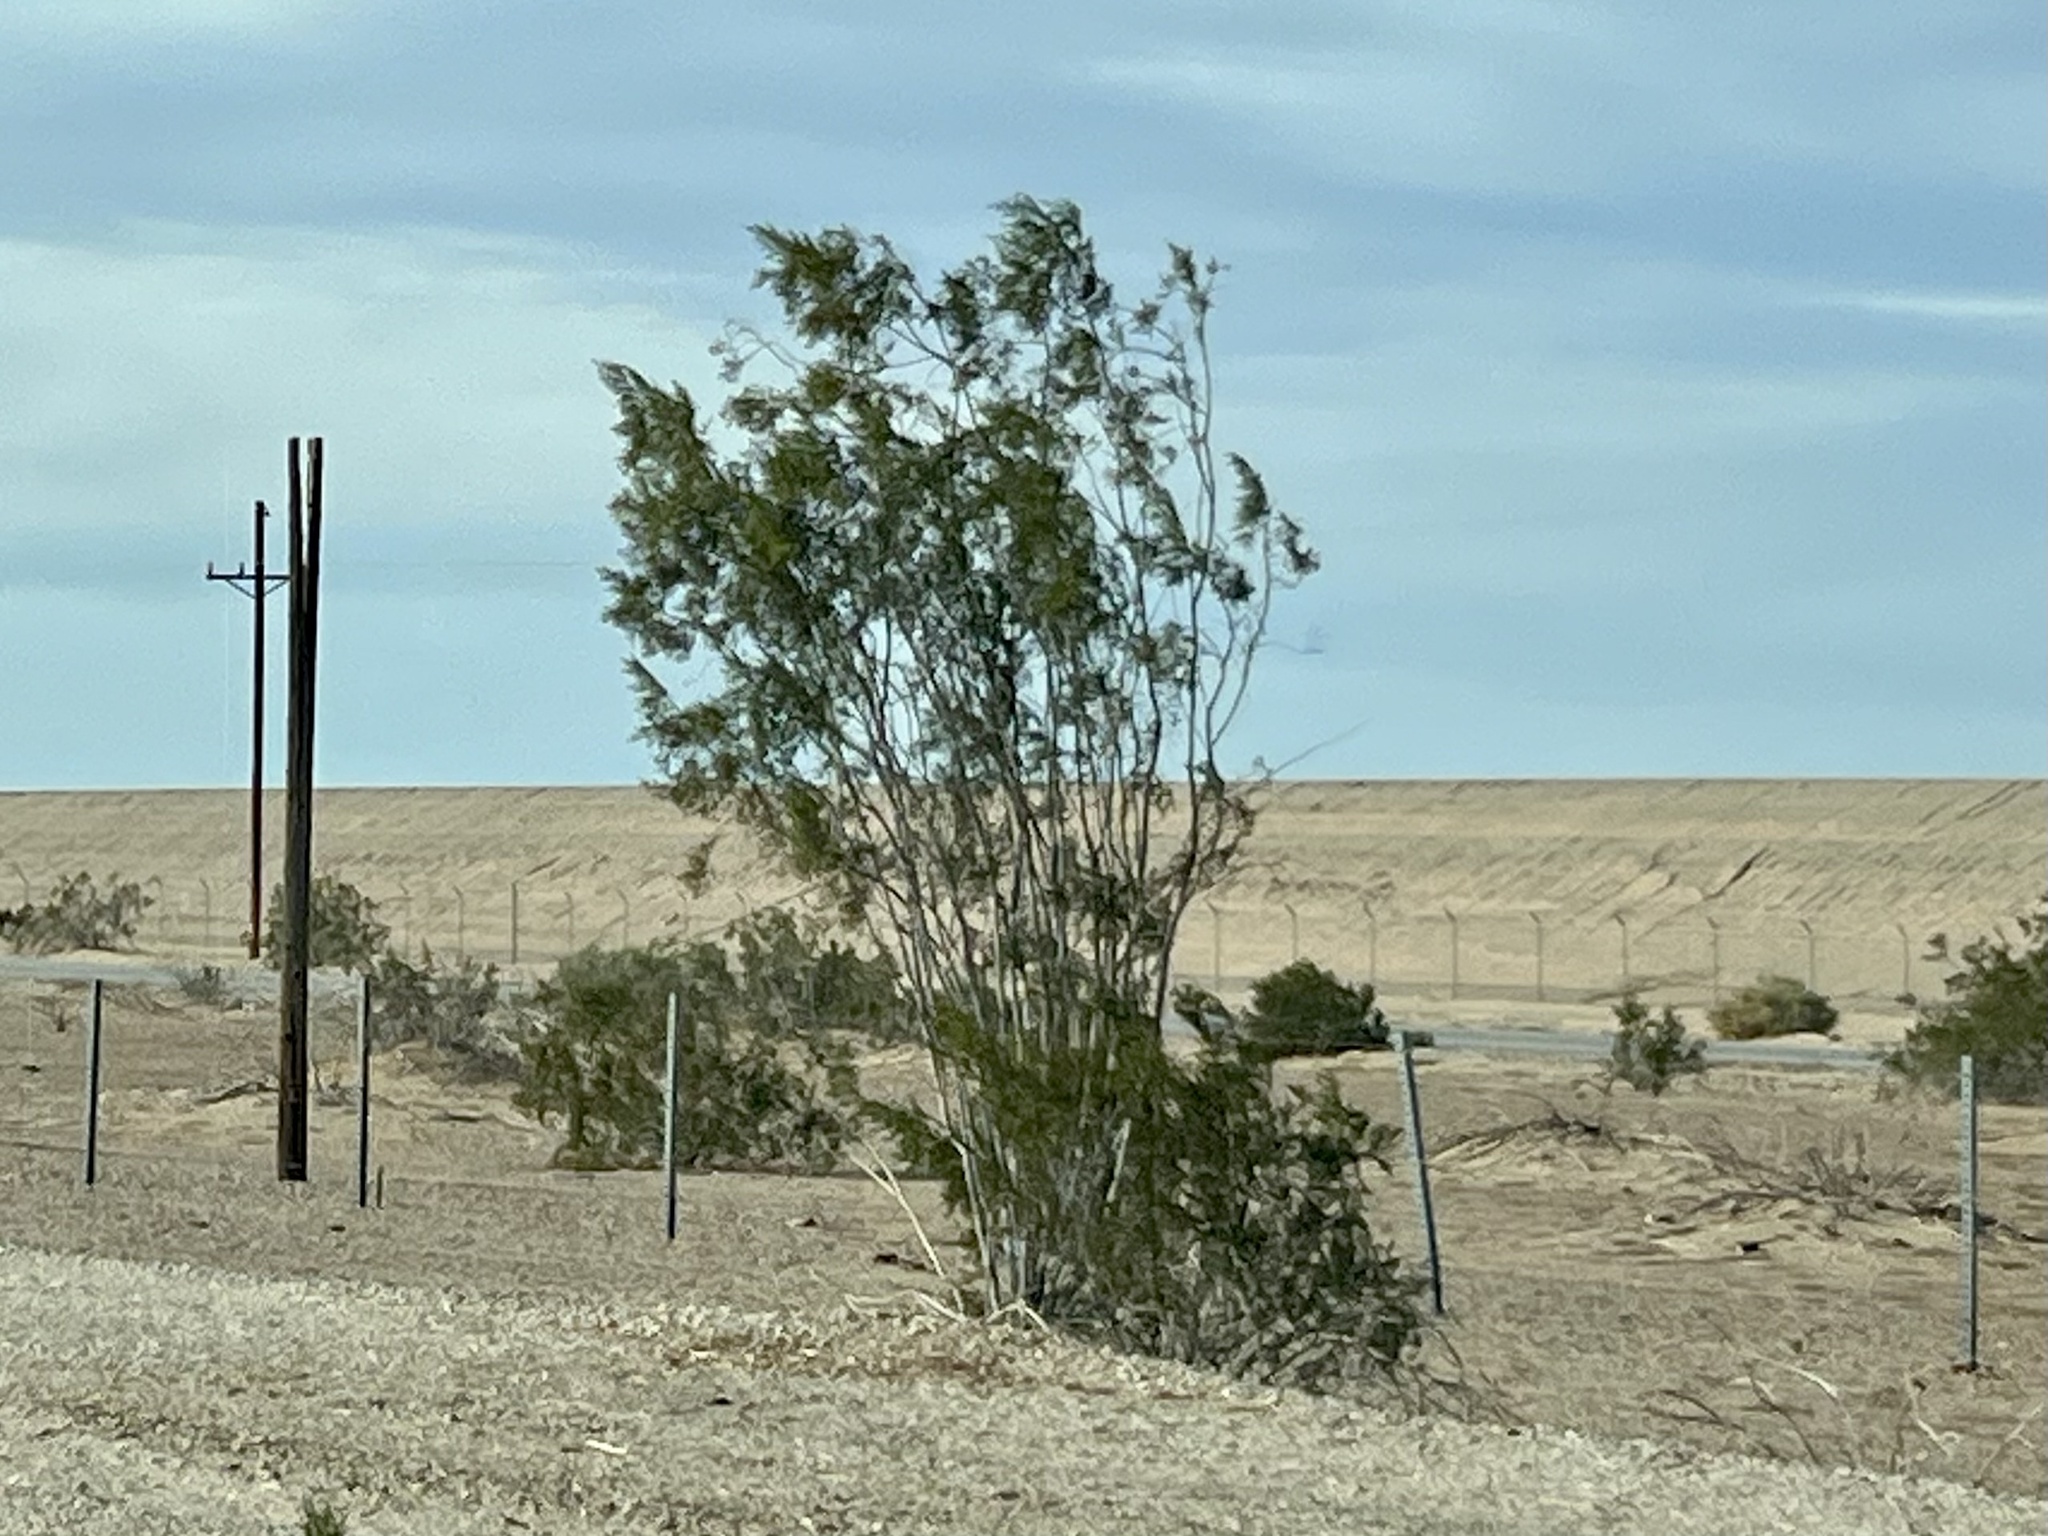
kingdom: Plantae
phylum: Tracheophyta
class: Magnoliopsida
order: Zygophyllales
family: Zygophyllaceae
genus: Larrea
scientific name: Larrea tridentata
